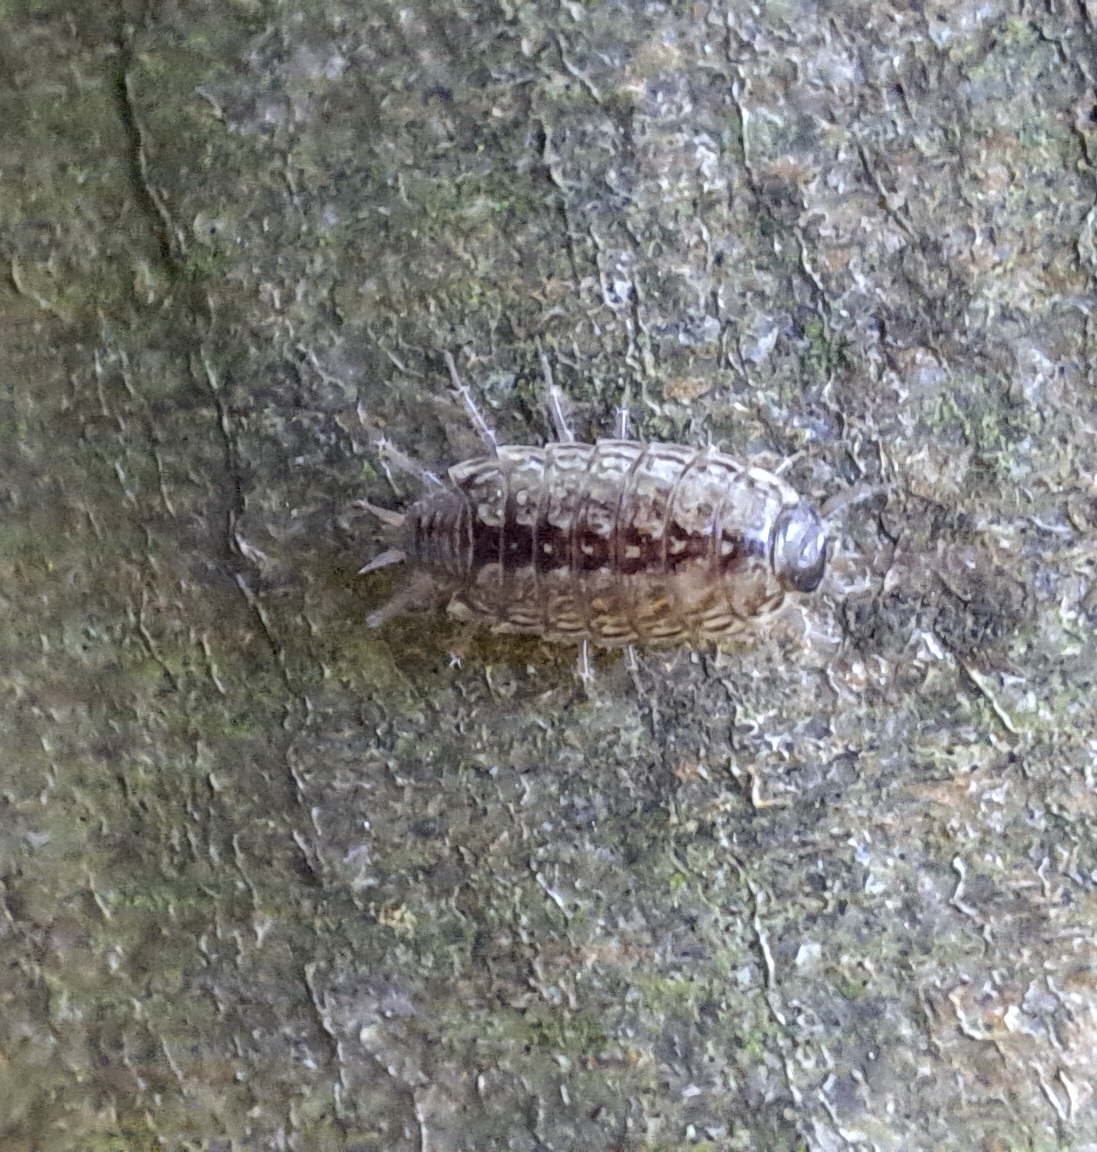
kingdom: Animalia
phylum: Arthropoda
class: Malacostraca
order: Isopoda
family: Philosciidae
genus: Philoscia
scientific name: Philoscia muscorum
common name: Common striped woodlouse
